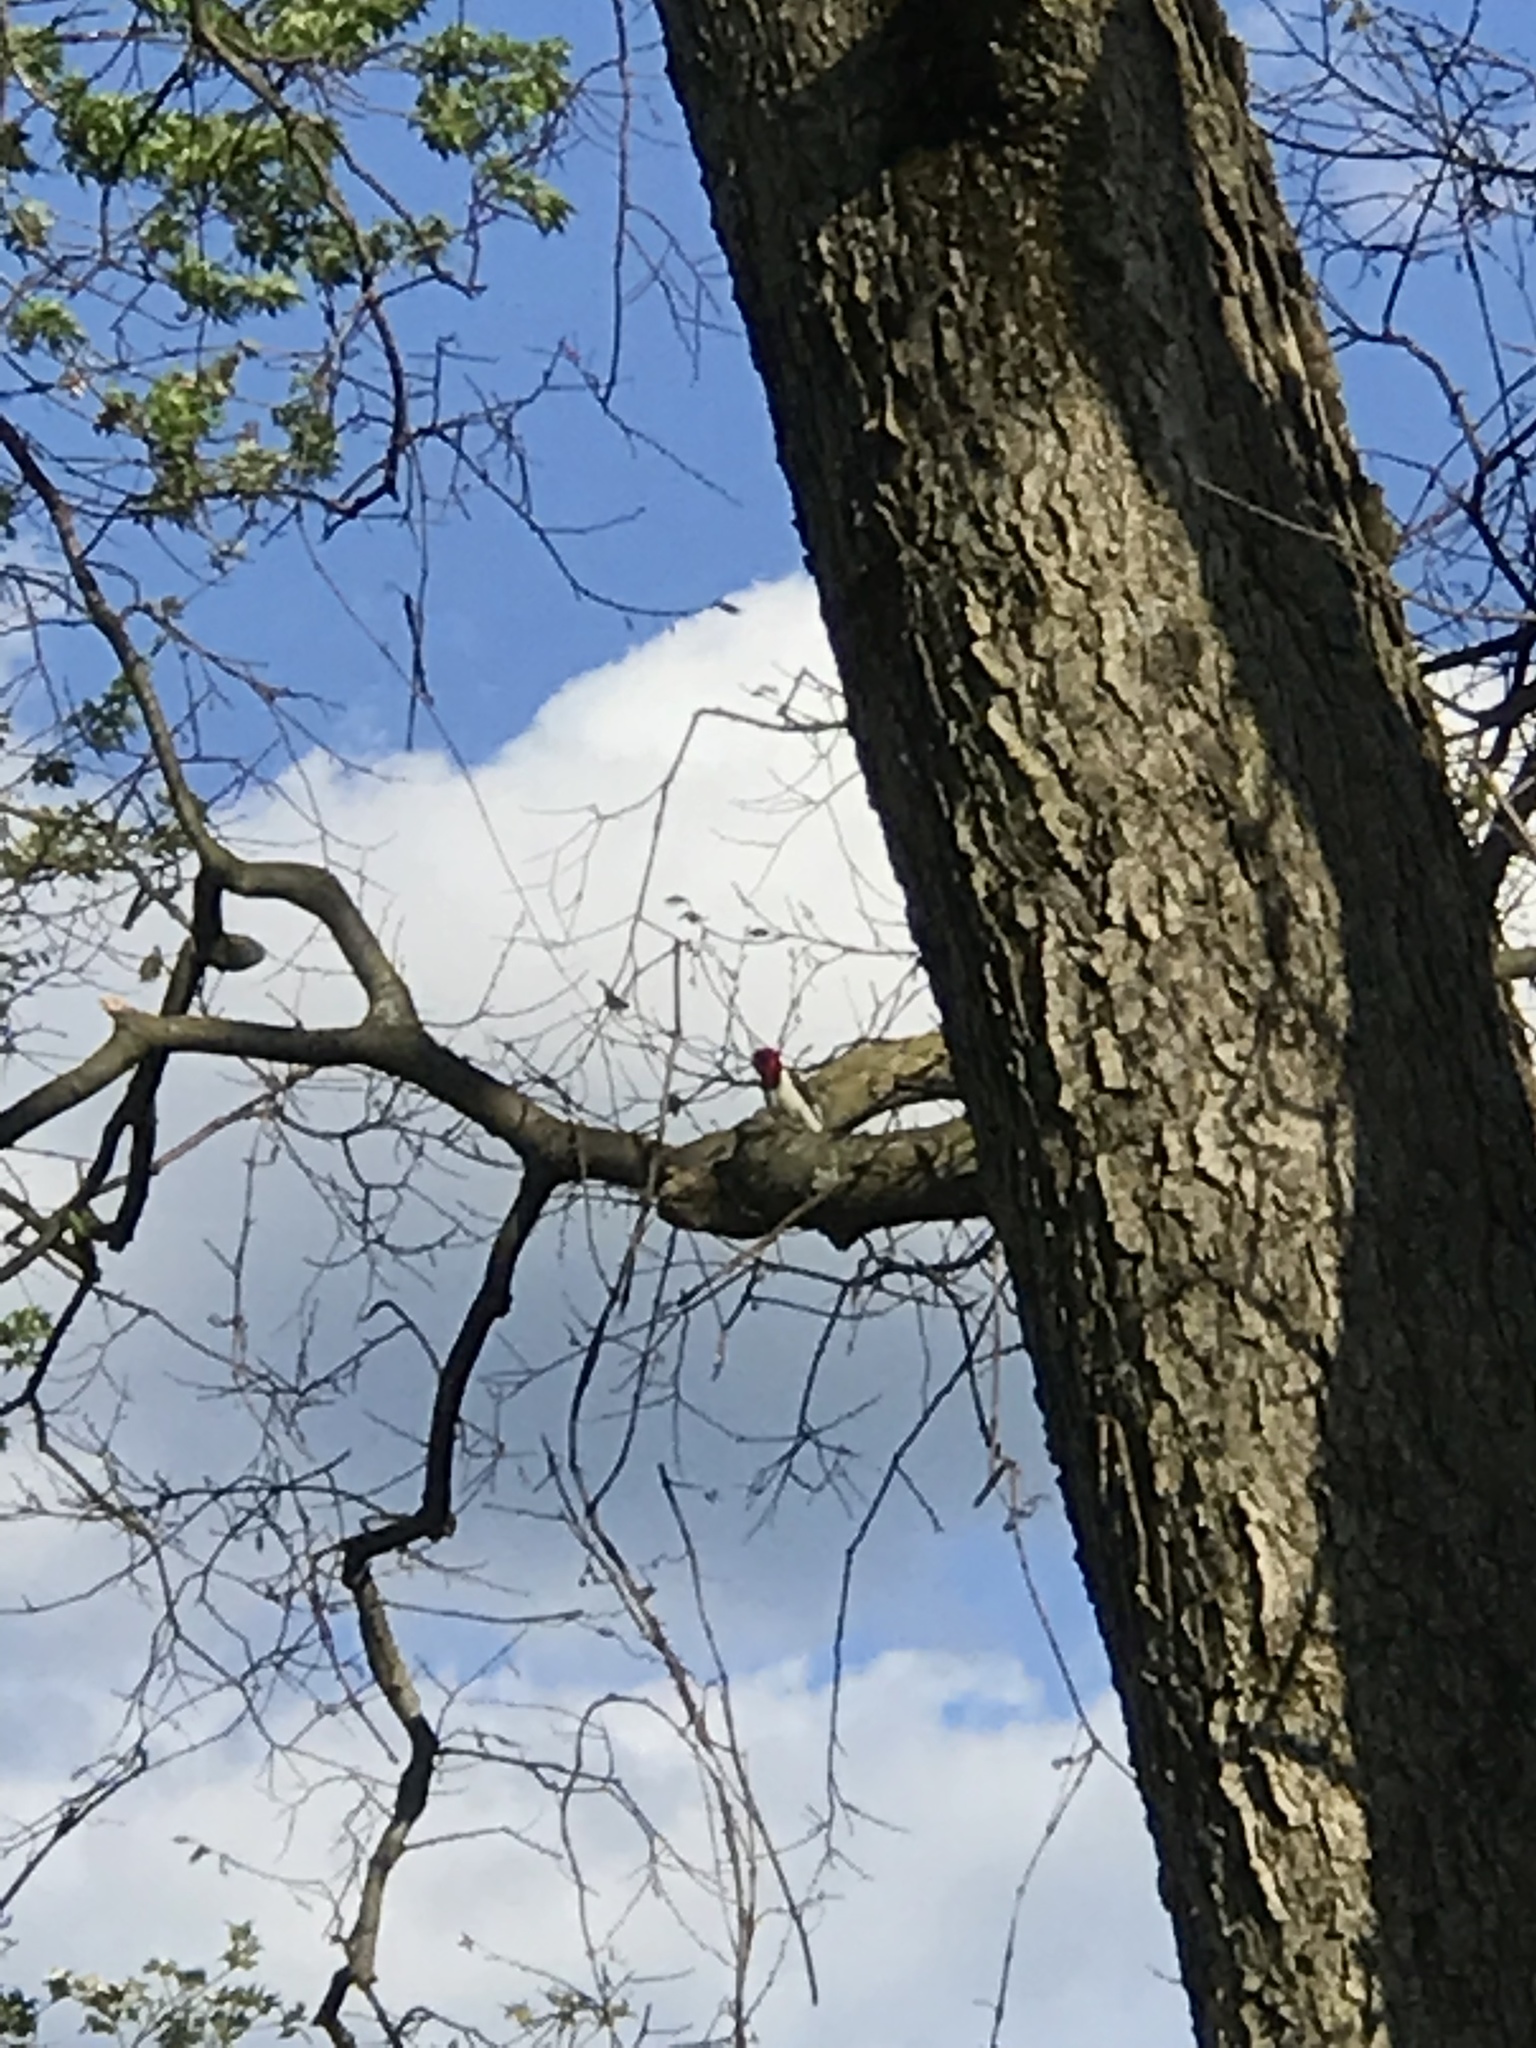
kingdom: Animalia
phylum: Chordata
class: Aves
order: Piciformes
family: Picidae
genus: Melanerpes
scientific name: Melanerpes erythrocephalus
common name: Red-headed woodpecker
